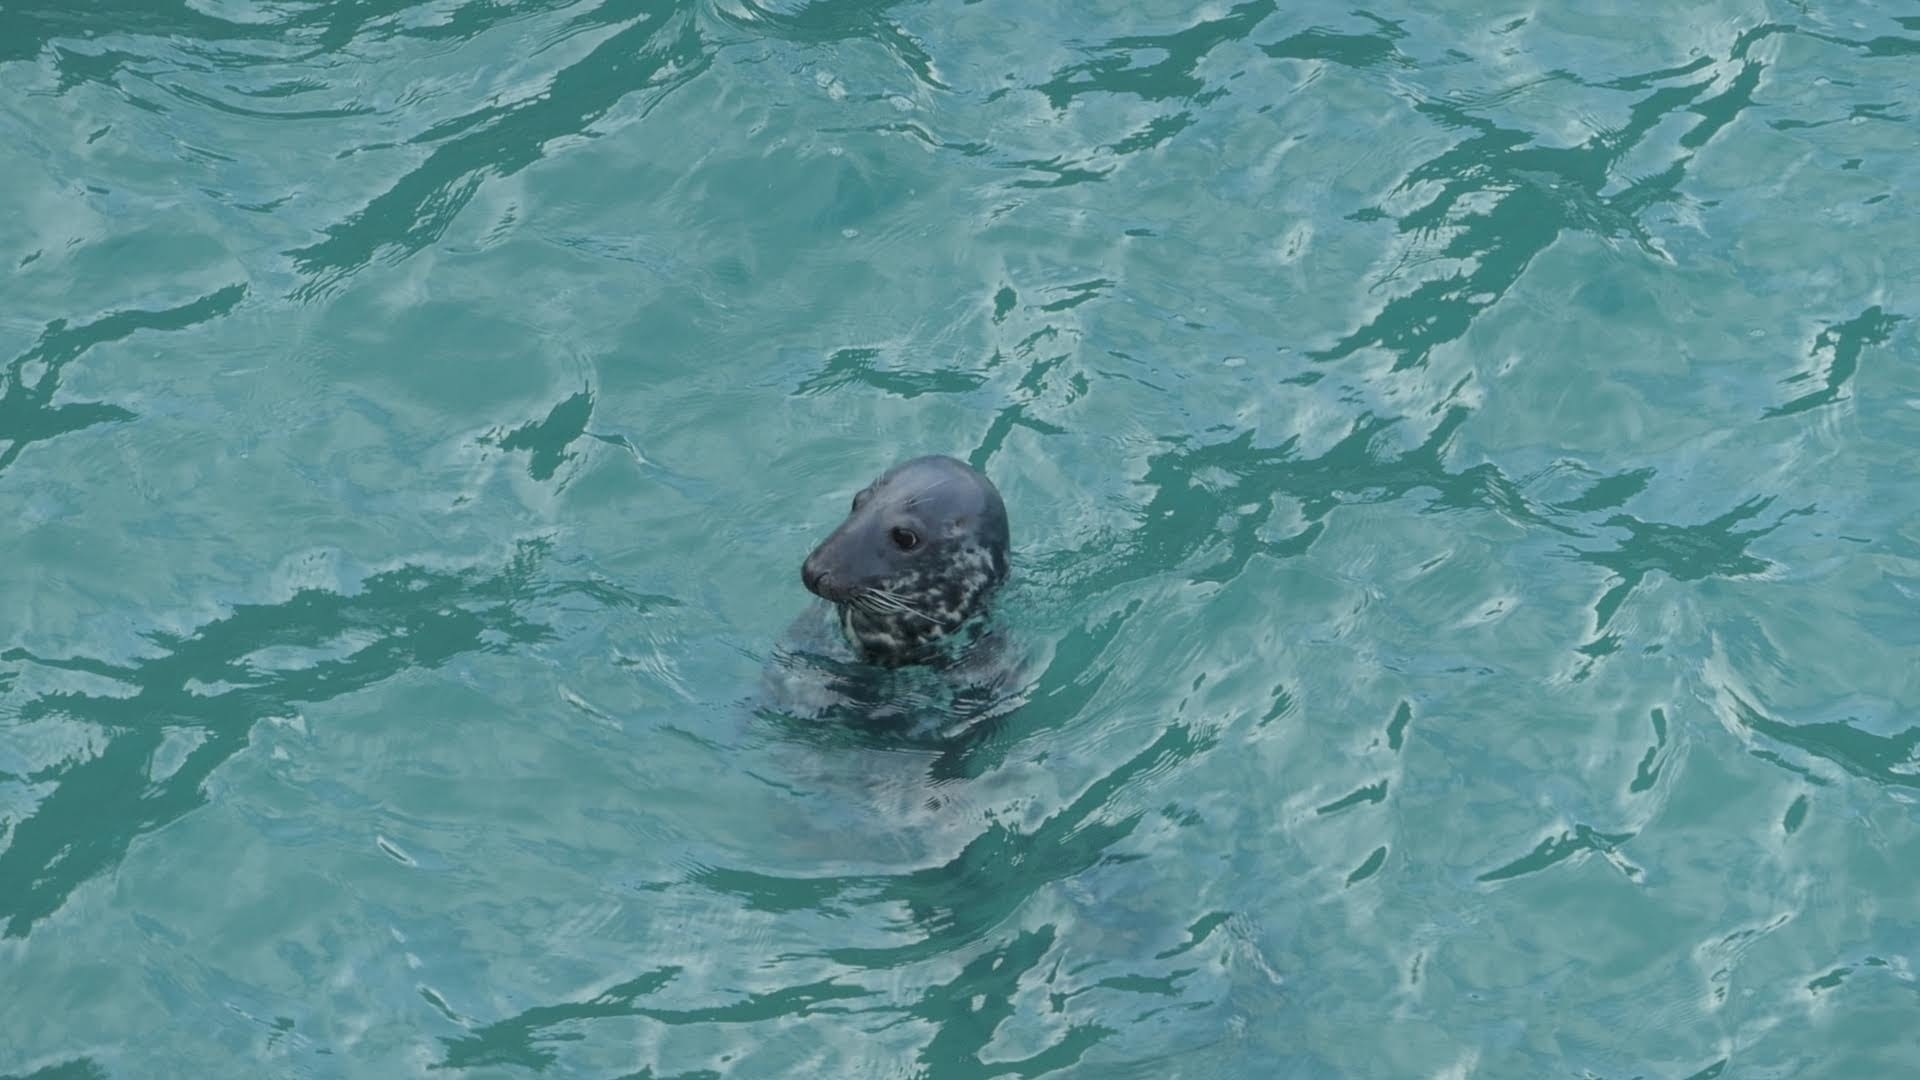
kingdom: Animalia
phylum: Chordata
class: Mammalia
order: Carnivora
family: Phocidae
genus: Halichoerus
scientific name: Halichoerus grypus
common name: Grey seal
